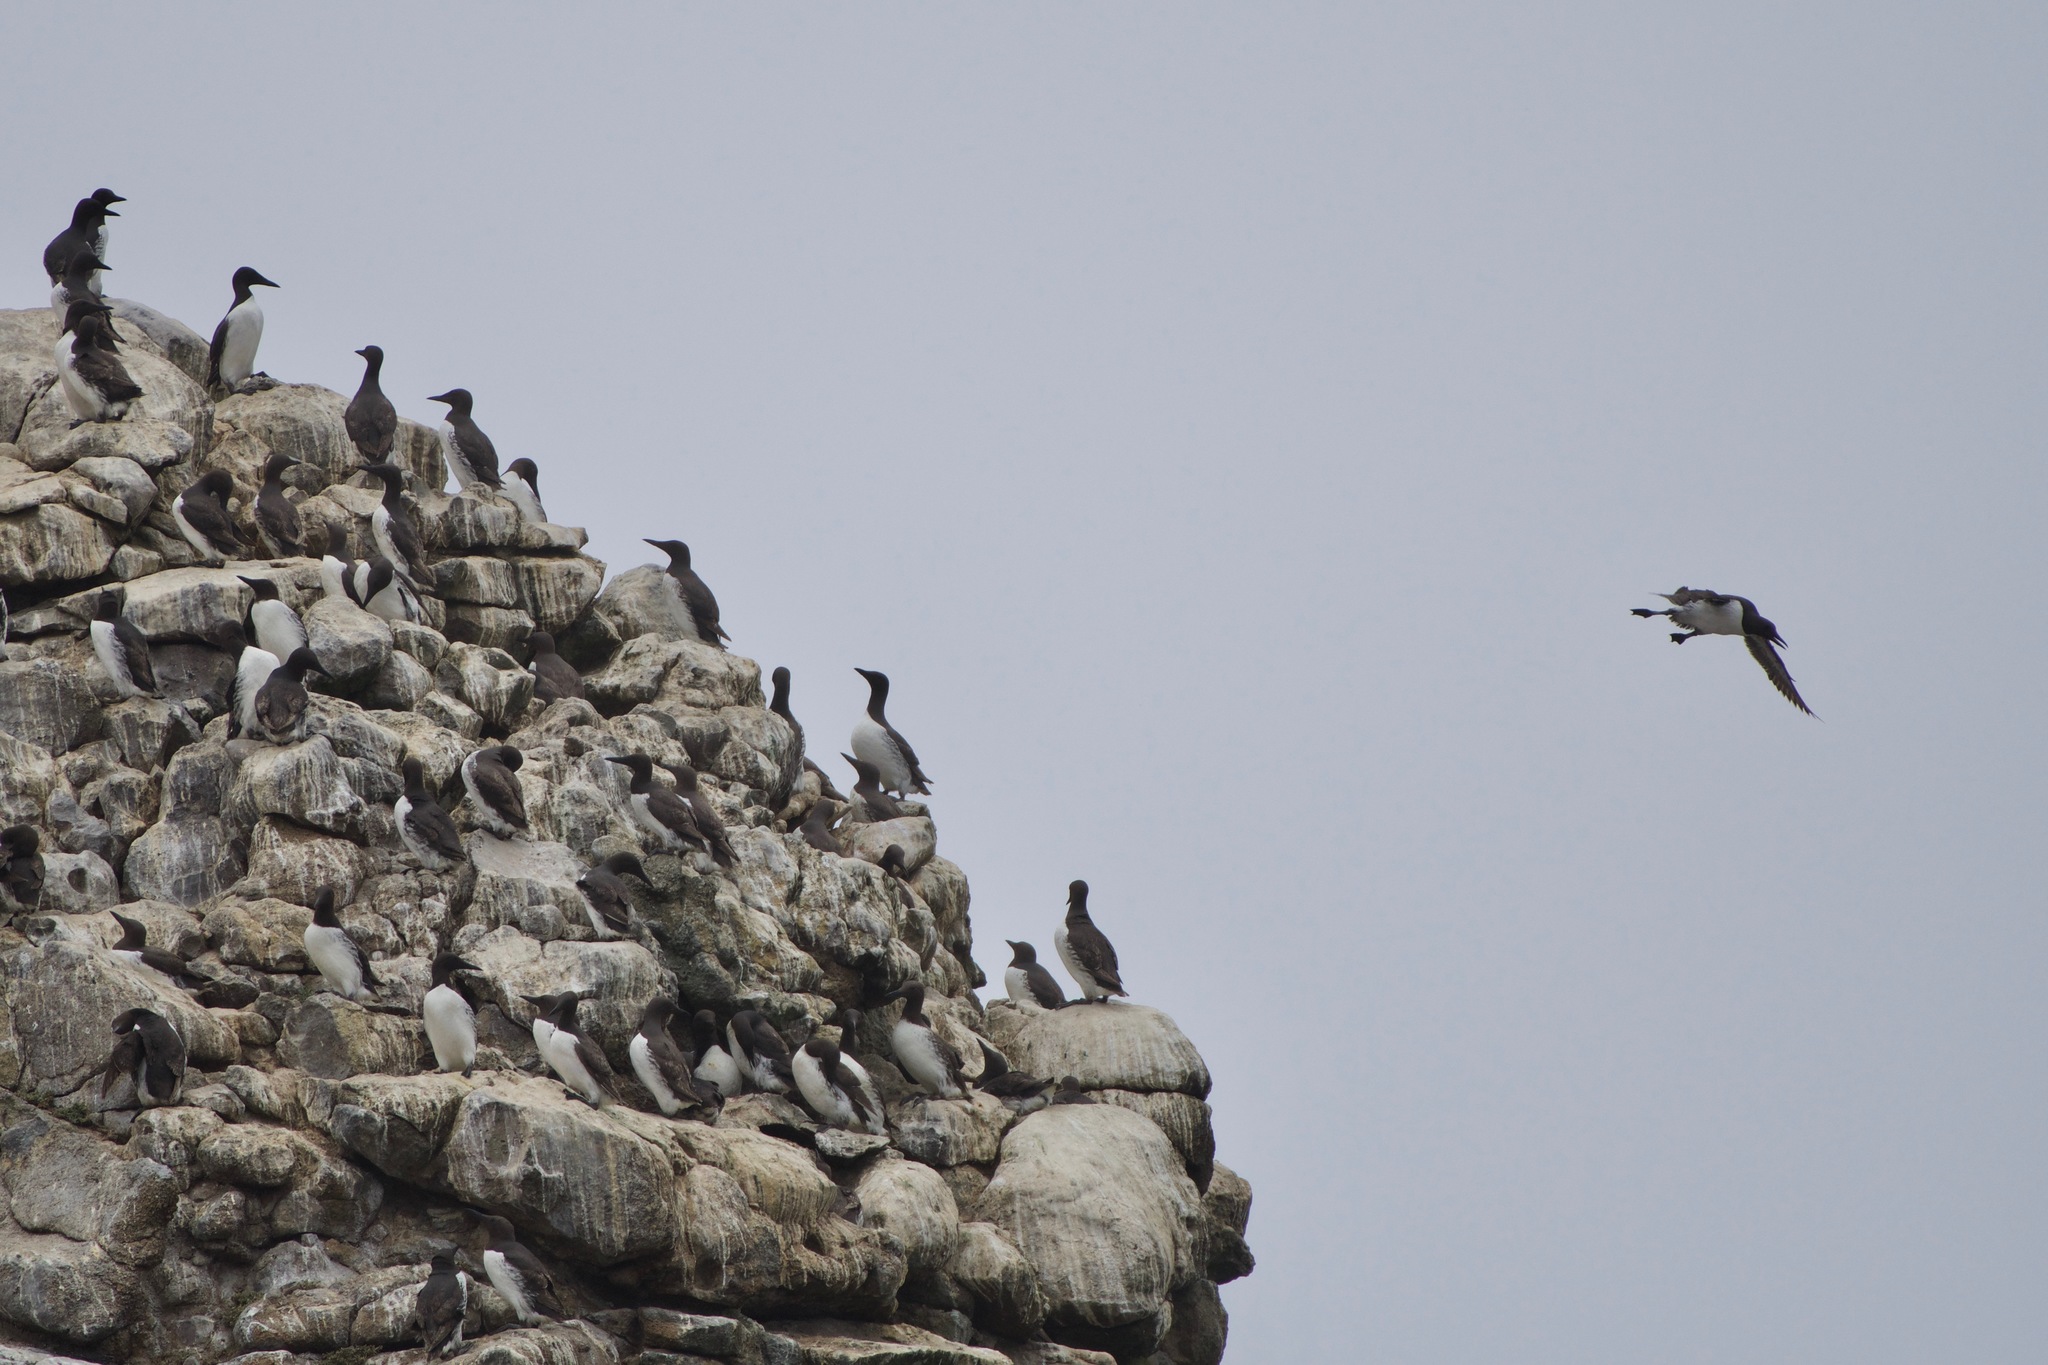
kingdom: Animalia
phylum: Chordata
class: Aves
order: Charadriiformes
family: Alcidae
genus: Uria
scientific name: Uria aalge
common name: Common murre
